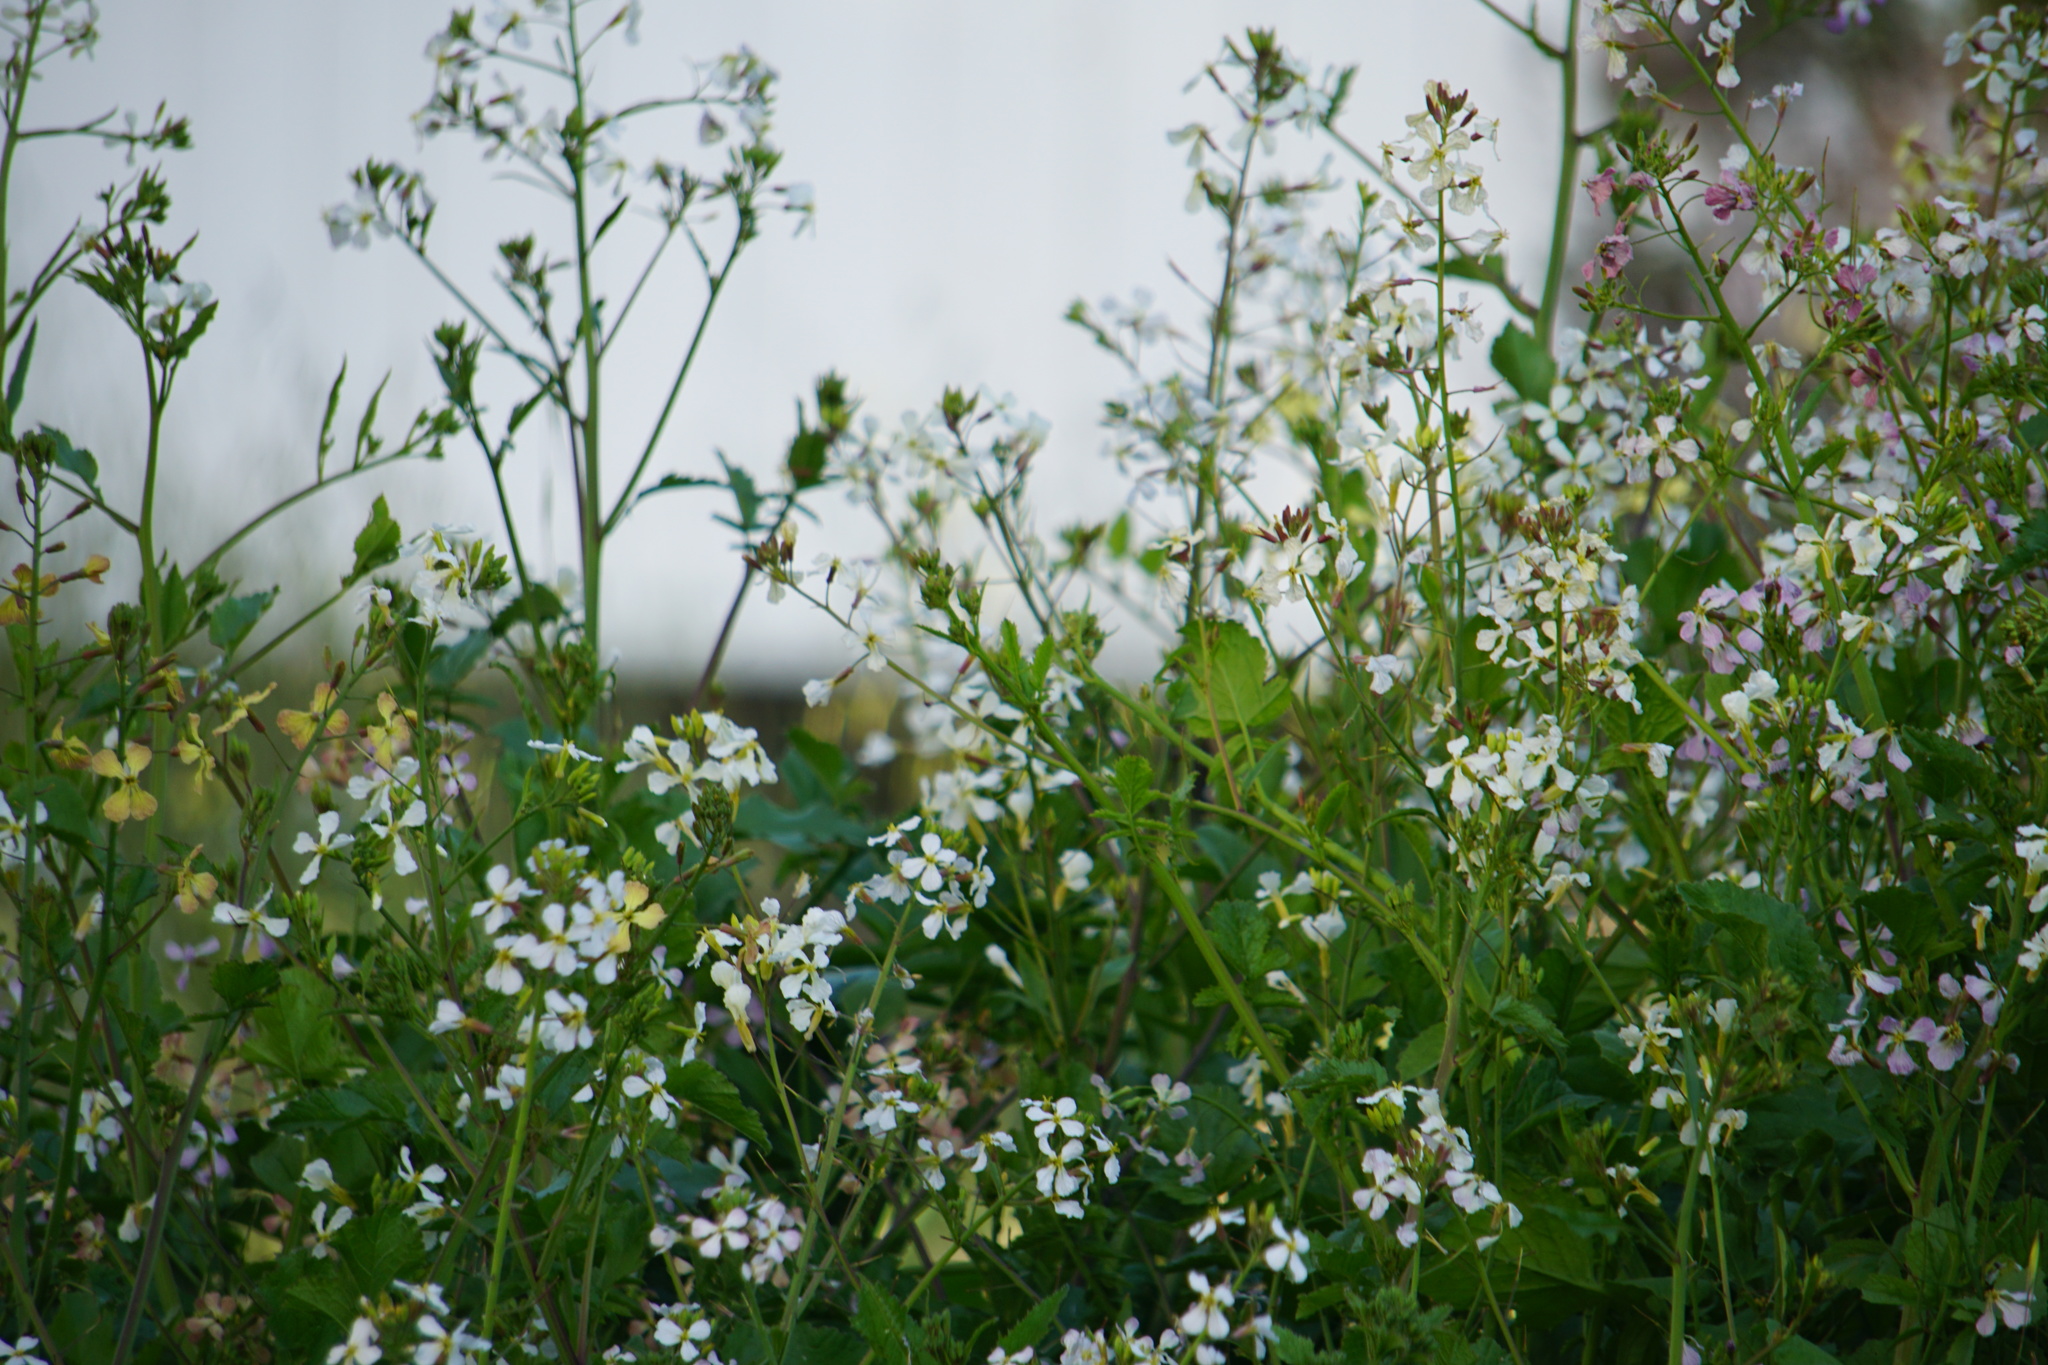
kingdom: Plantae
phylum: Tracheophyta
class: Magnoliopsida
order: Brassicales
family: Brassicaceae
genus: Raphanus
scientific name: Raphanus sativus
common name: Cultivated radish
